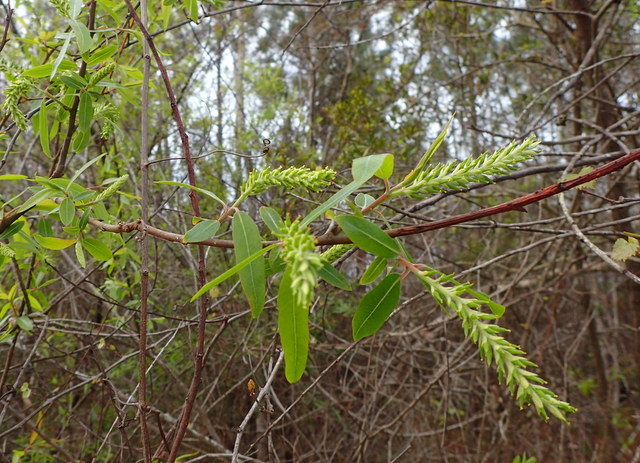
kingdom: Plantae
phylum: Tracheophyta
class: Magnoliopsida
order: Malpighiales
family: Salicaceae
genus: Salix
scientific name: Salix caroliniana
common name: Carolina willow
